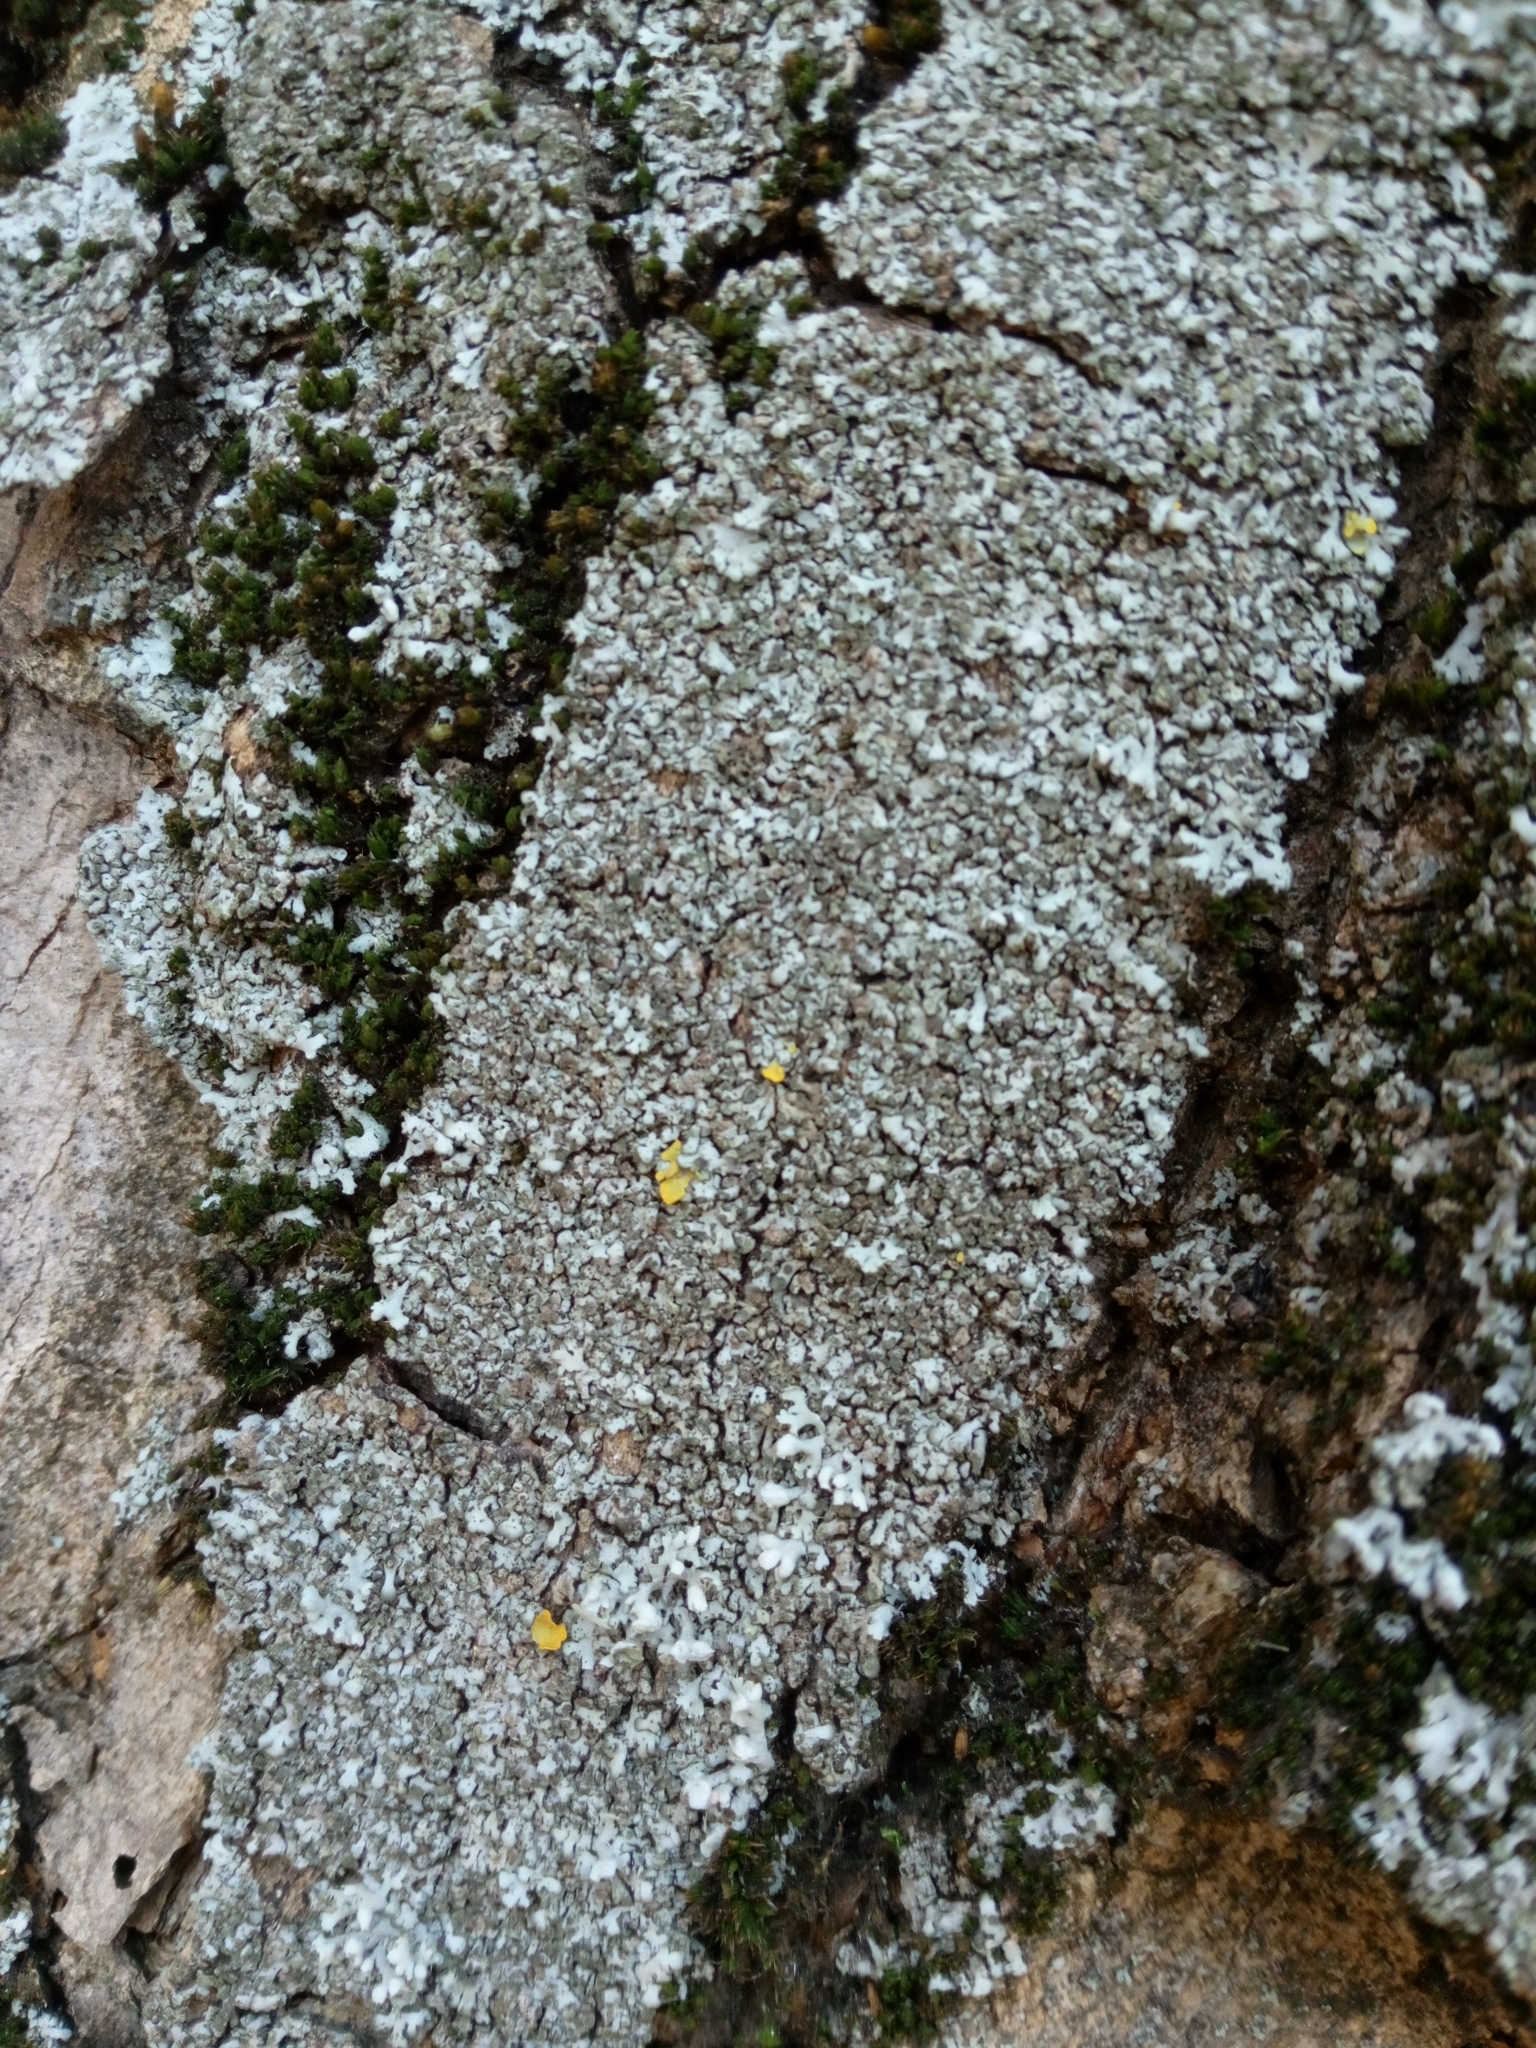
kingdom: Fungi
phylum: Ascomycota
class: Lecanoromycetes
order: Caliciales
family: Physciaceae
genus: Phaeophyscia
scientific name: Phaeophyscia orbicularis
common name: Mealy shadow lichen
